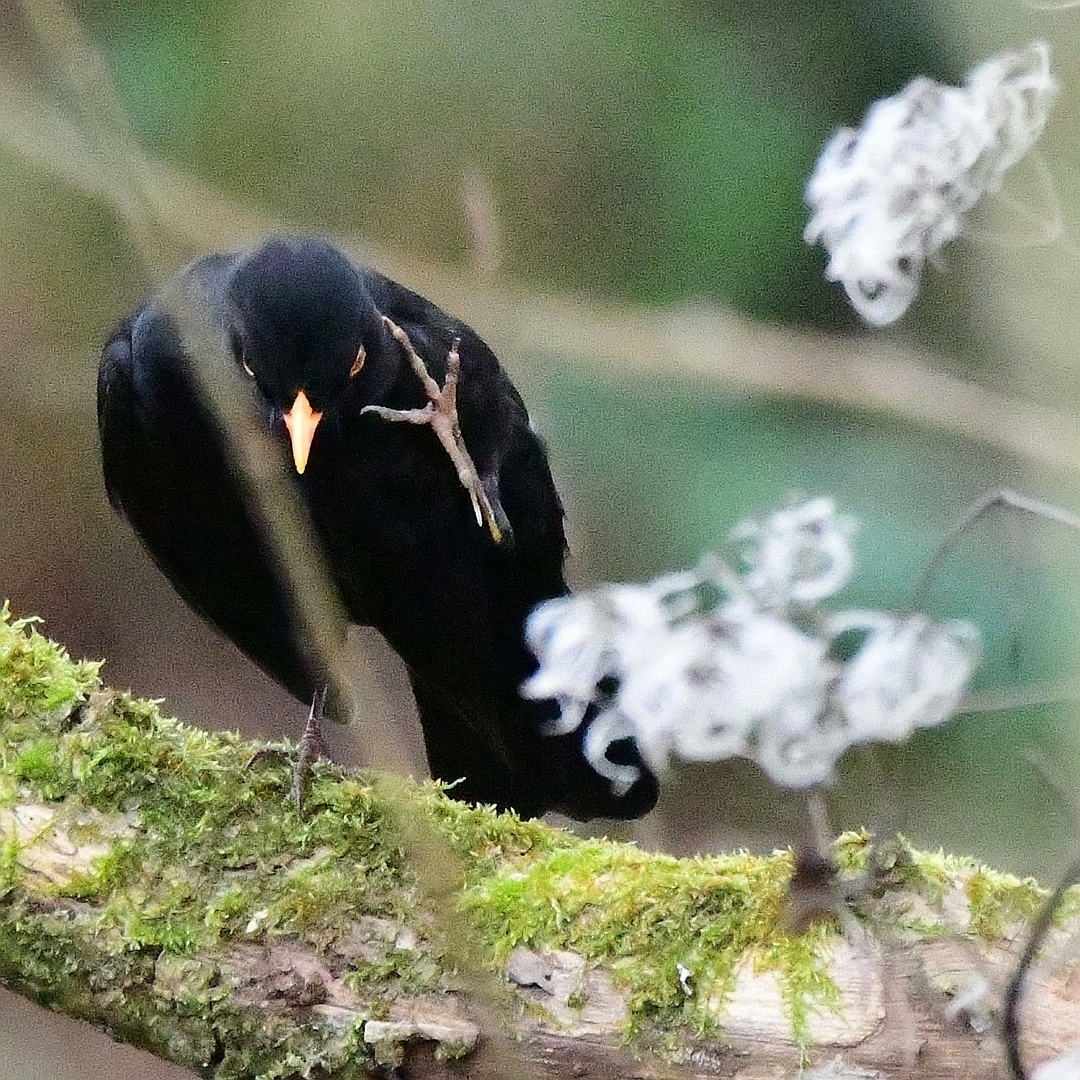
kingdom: Animalia
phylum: Chordata
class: Aves
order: Passeriformes
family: Turdidae
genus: Turdus
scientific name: Turdus merula
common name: Common blackbird
